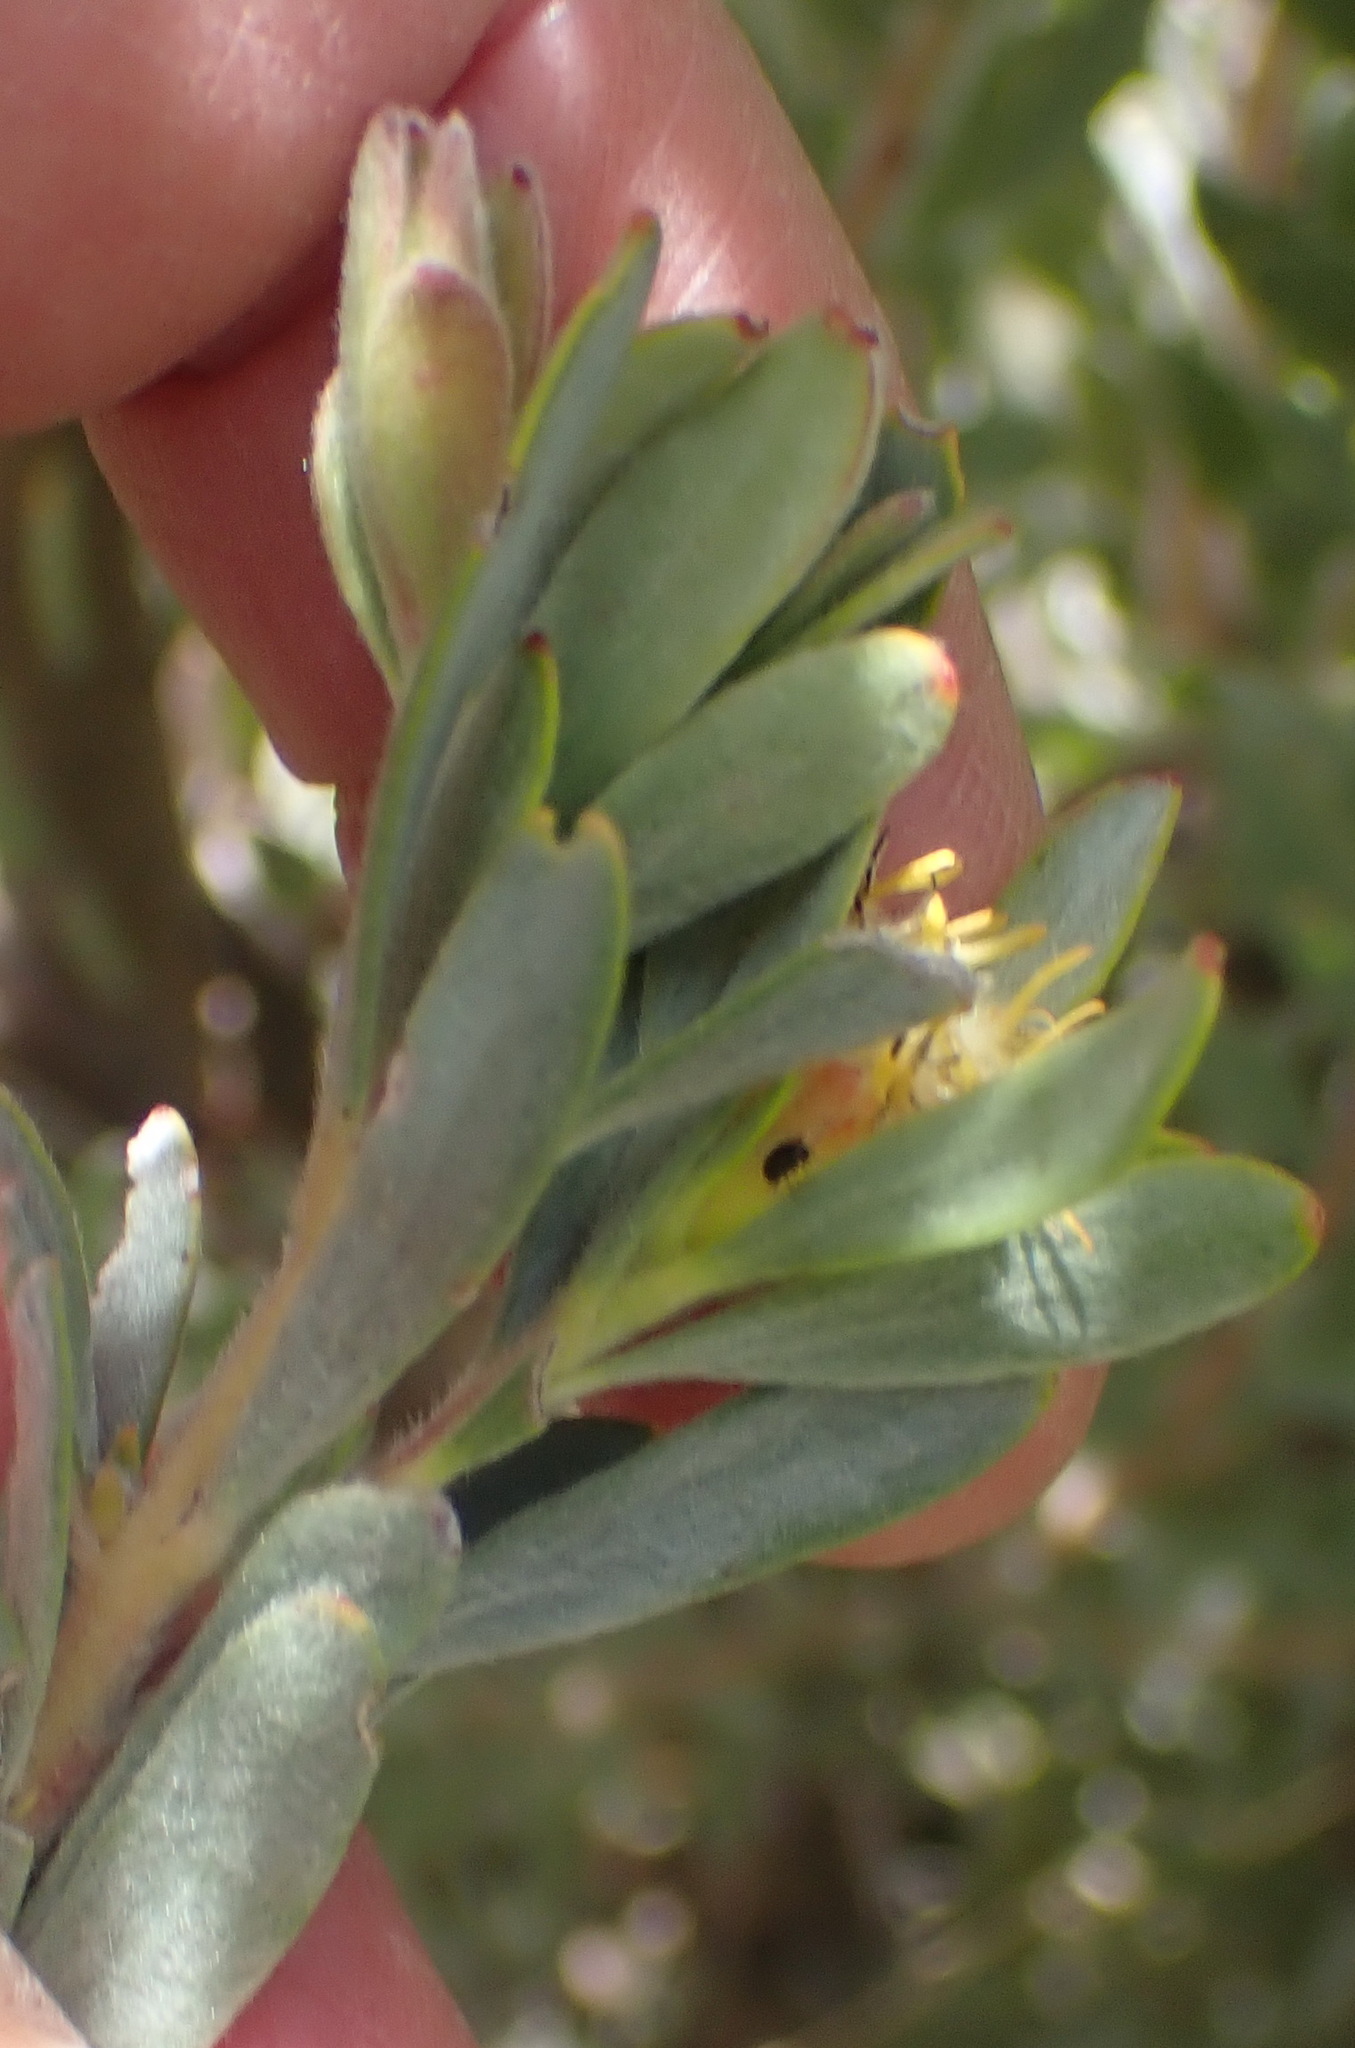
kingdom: Plantae
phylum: Tracheophyta
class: Magnoliopsida
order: Proteales
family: Proteaceae
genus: Leucadendron
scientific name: Leucadendron rubrum
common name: Spinning top
